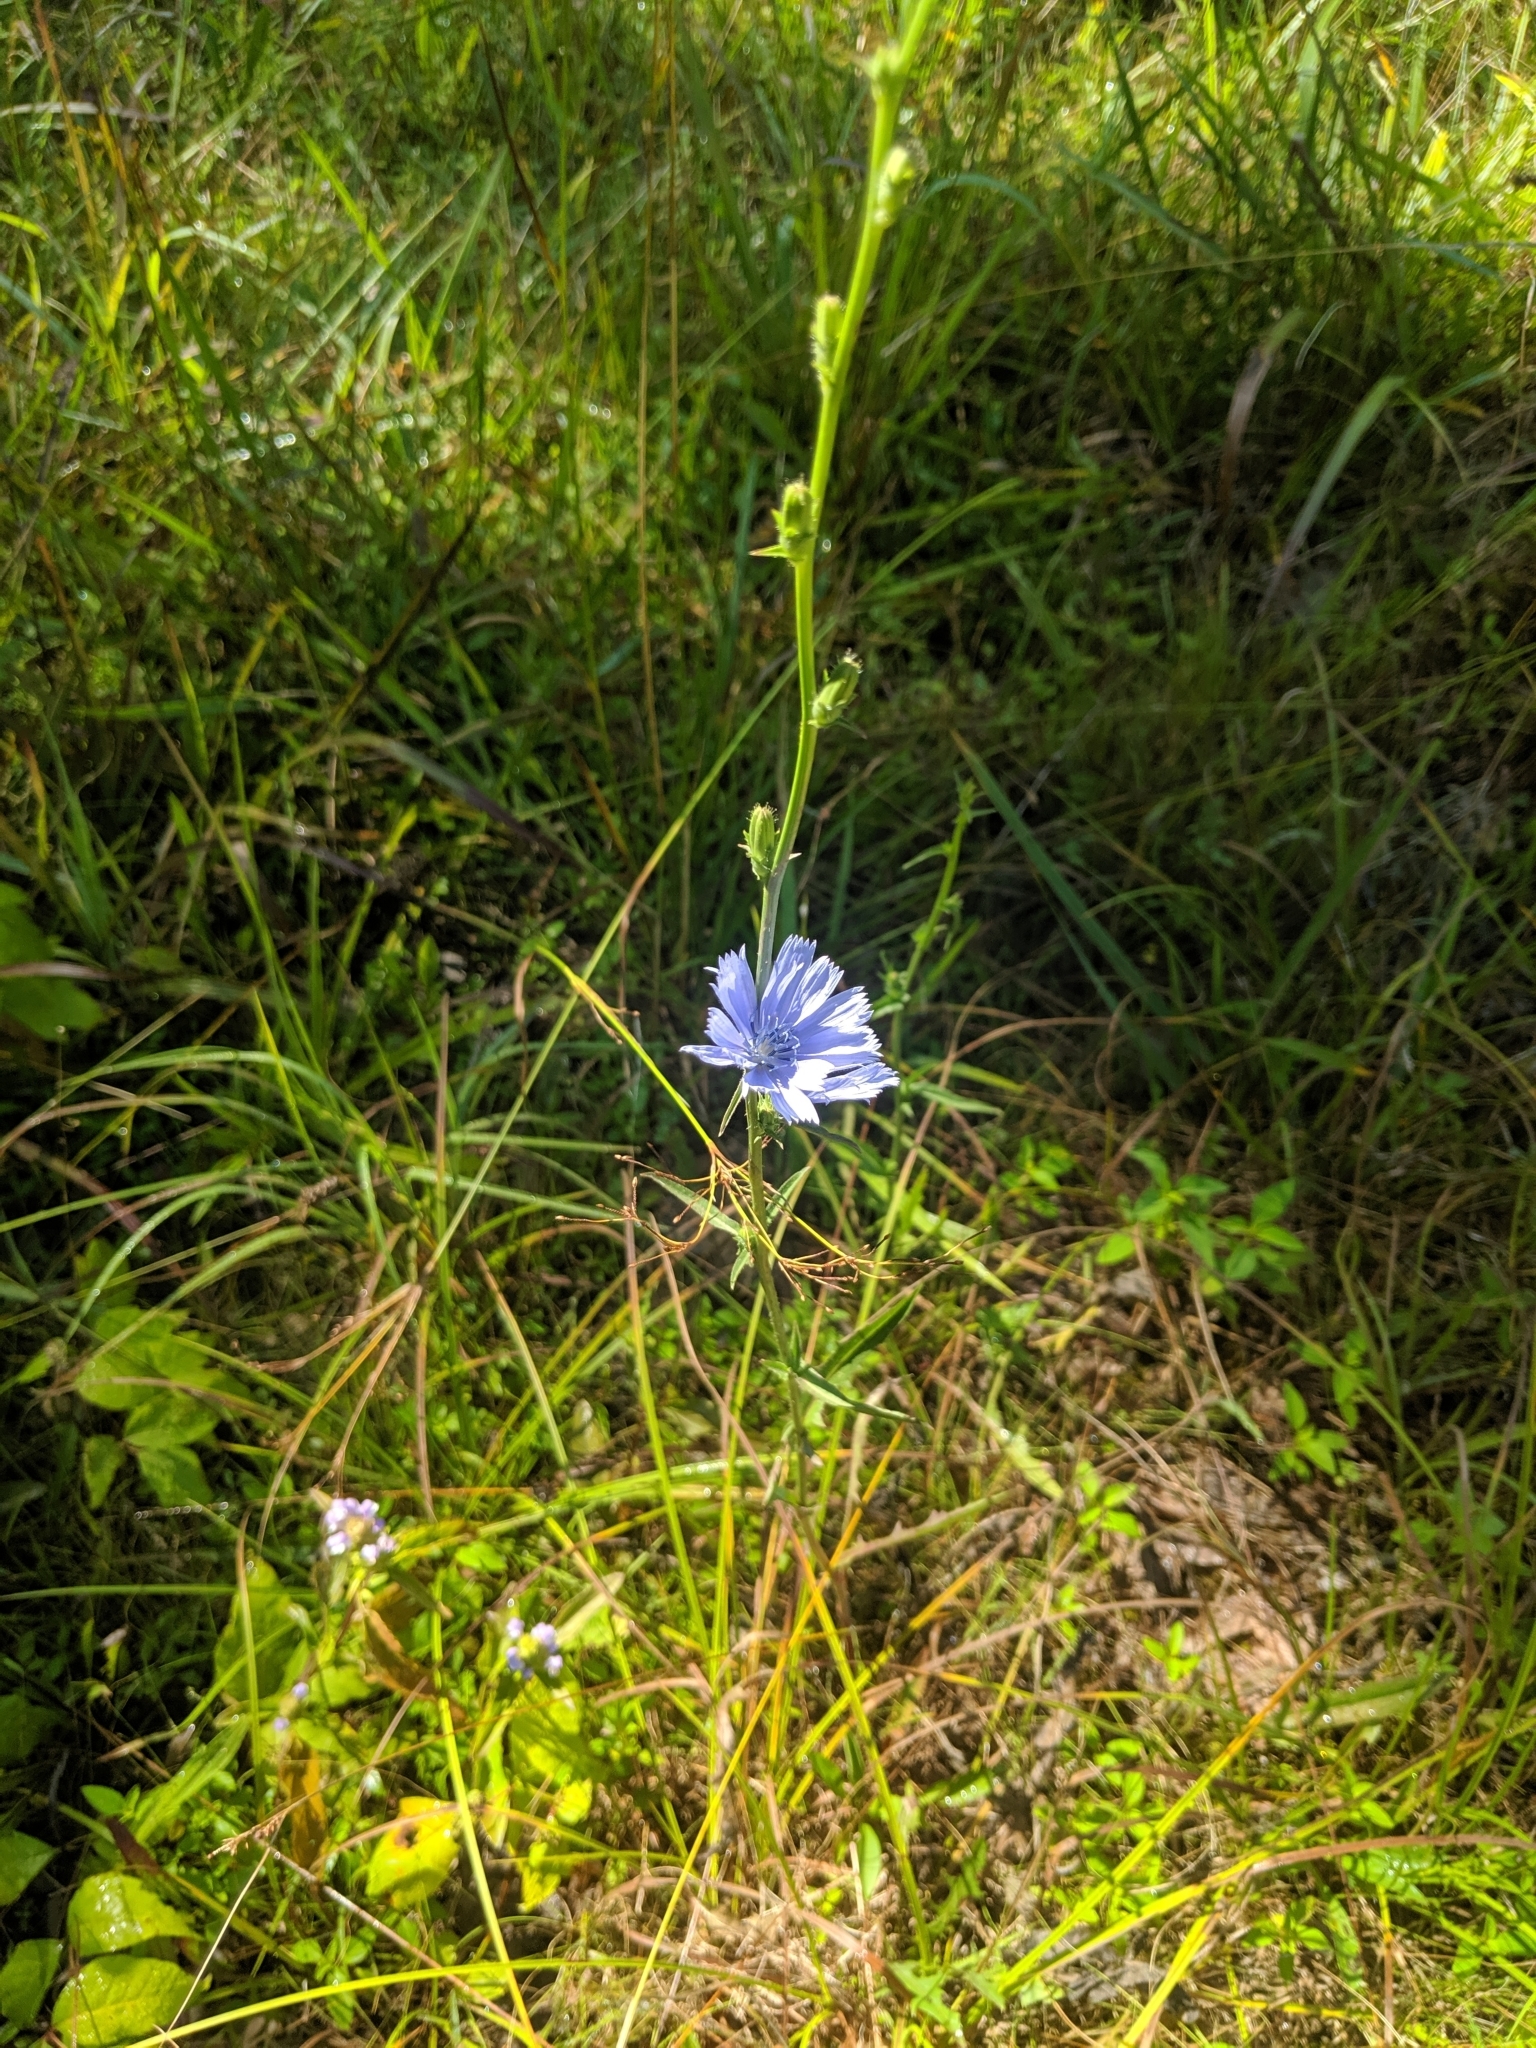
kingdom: Plantae
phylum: Tracheophyta
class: Magnoliopsida
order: Asterales
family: Asteraceae
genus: Cichorium
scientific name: Cichorium intybus
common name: Chicory
